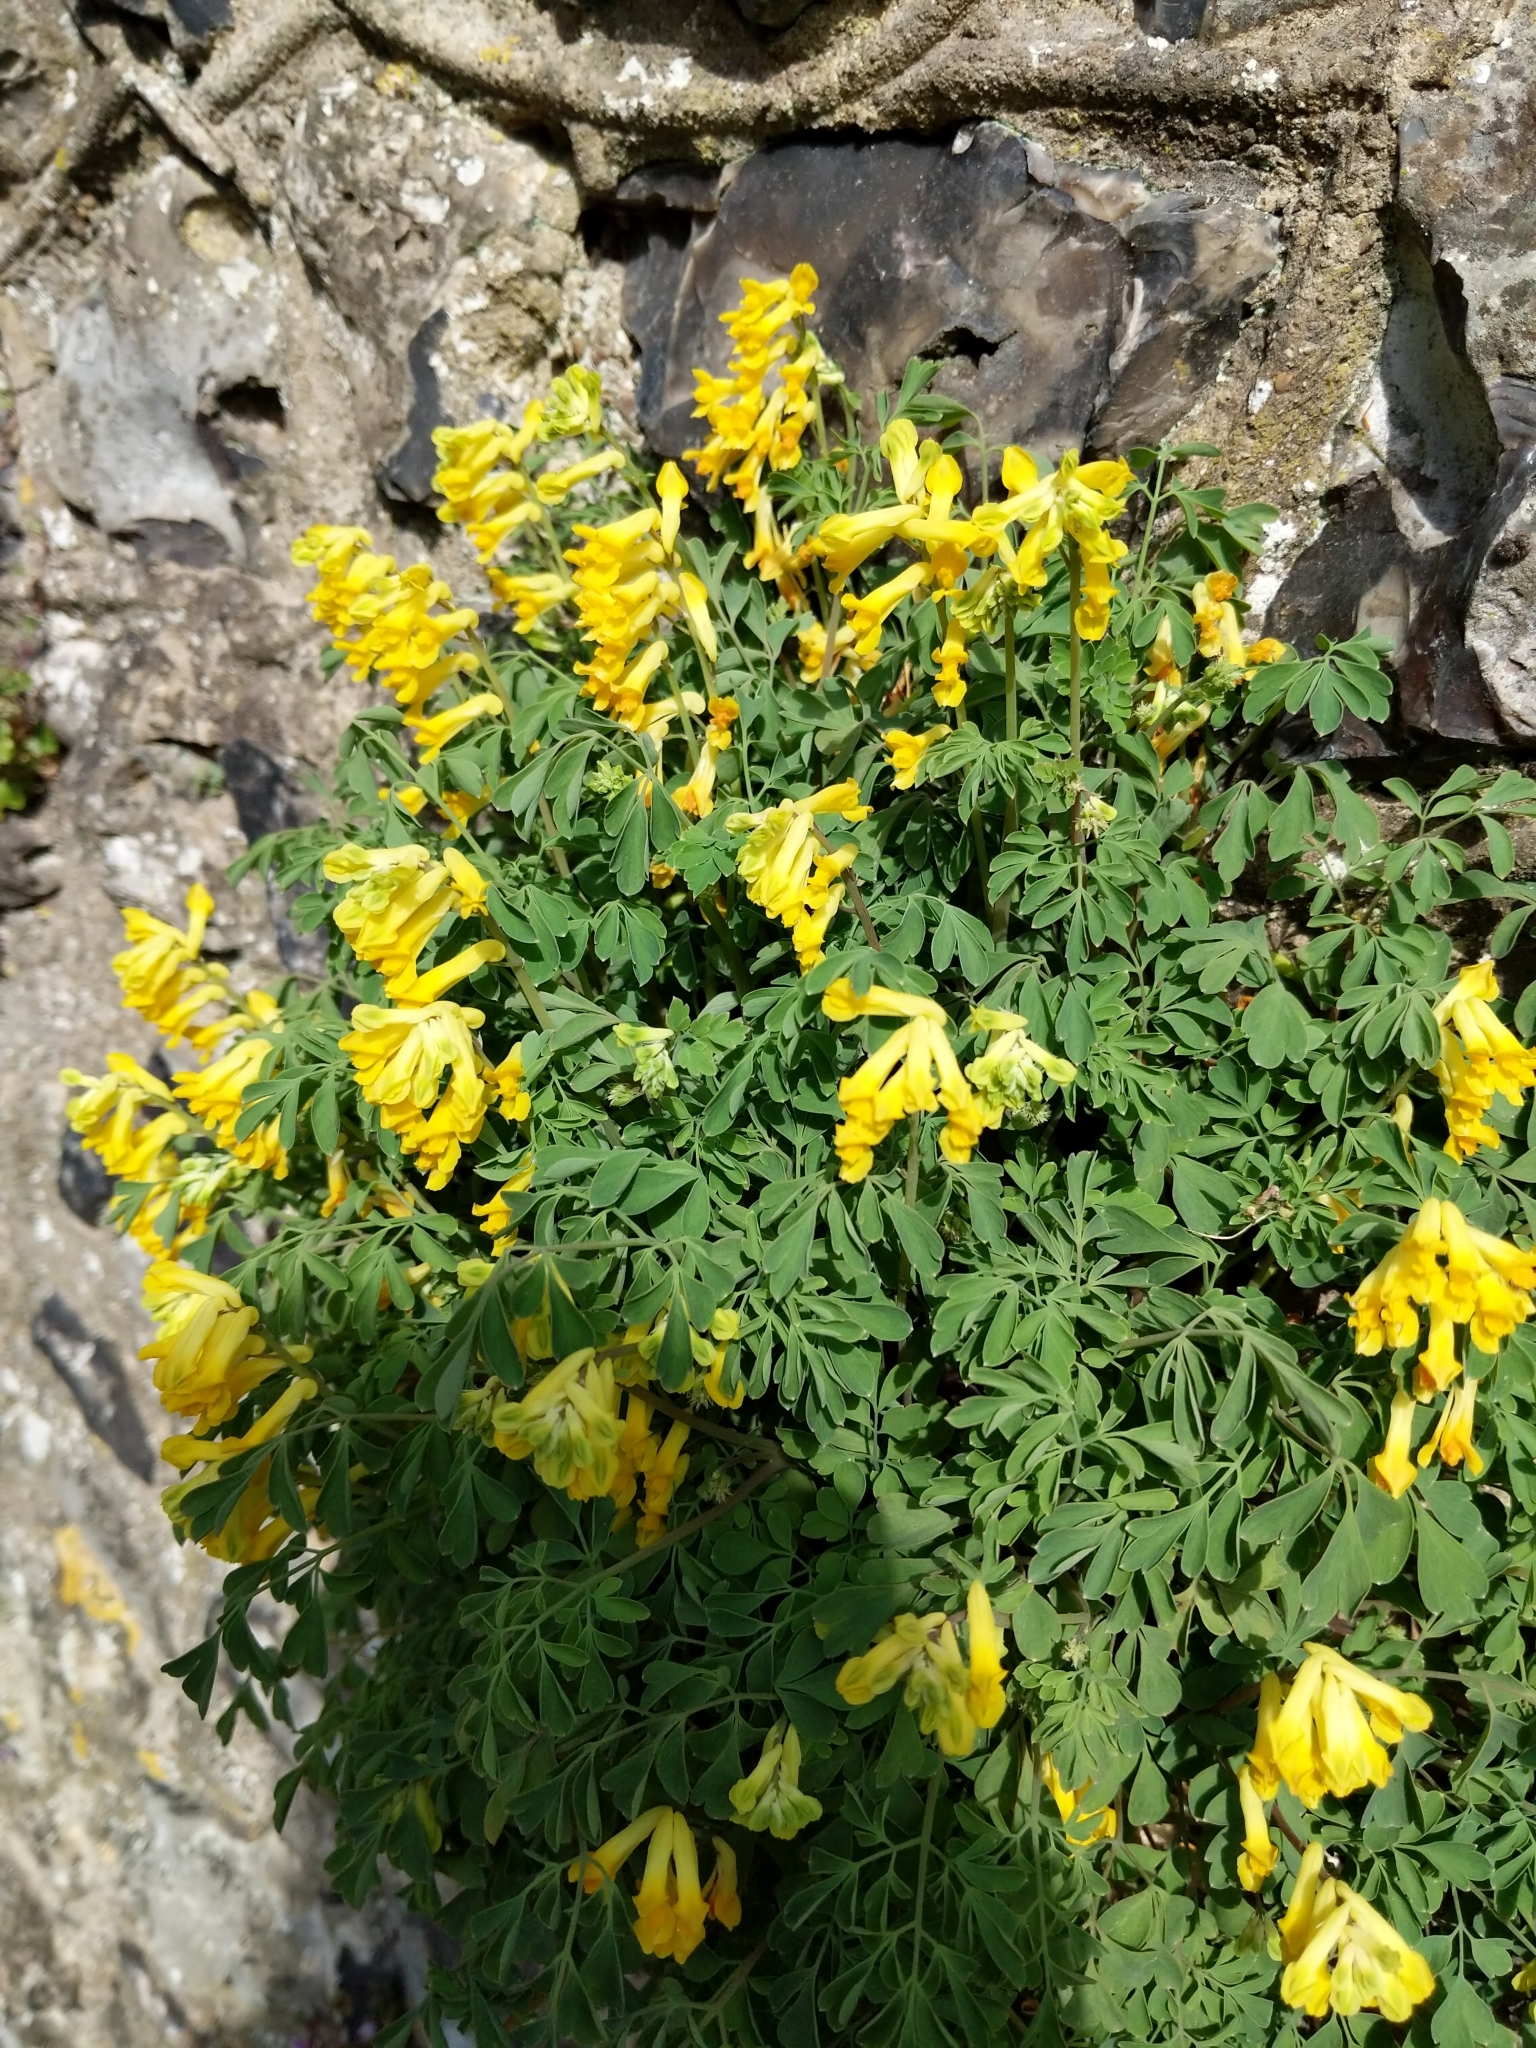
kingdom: Plantae
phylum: Tracheophyta
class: Magnoliopsida
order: Ranunculales
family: Papaveraceae
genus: Pseudofumaria
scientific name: Pseudofumaria lutea
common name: Yellow corydalis
